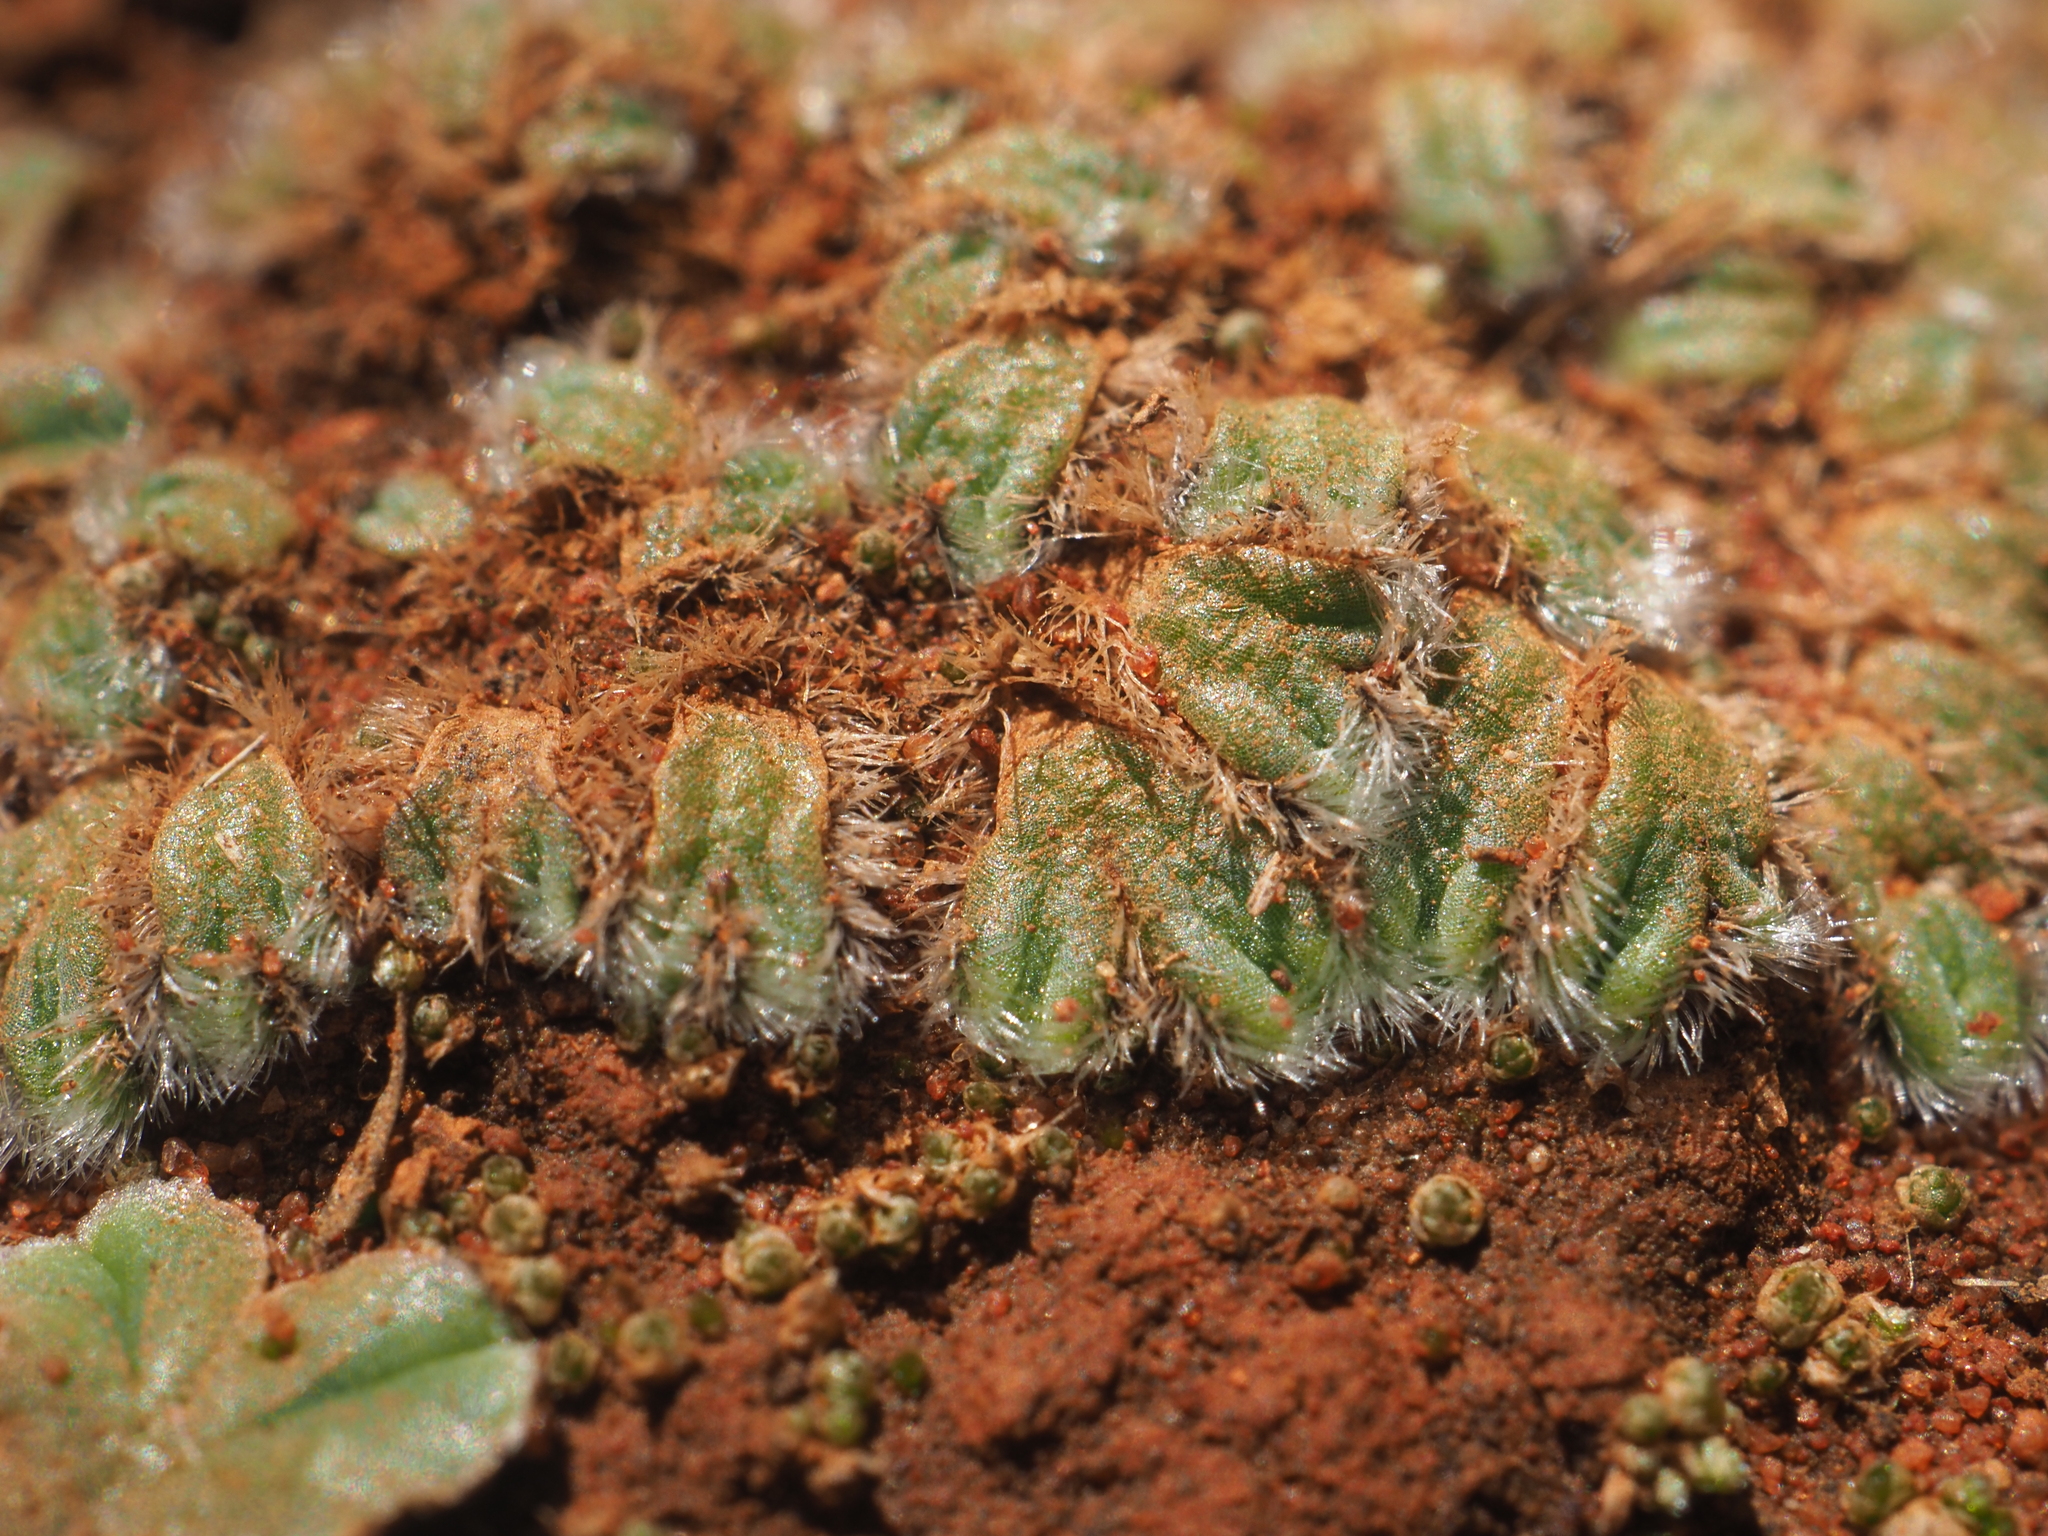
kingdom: Plantae
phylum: Marchantiophyta
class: Marchantiopsida
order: Marchantiales
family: Ricciaceae
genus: Riccia
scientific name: Riccia crinita
